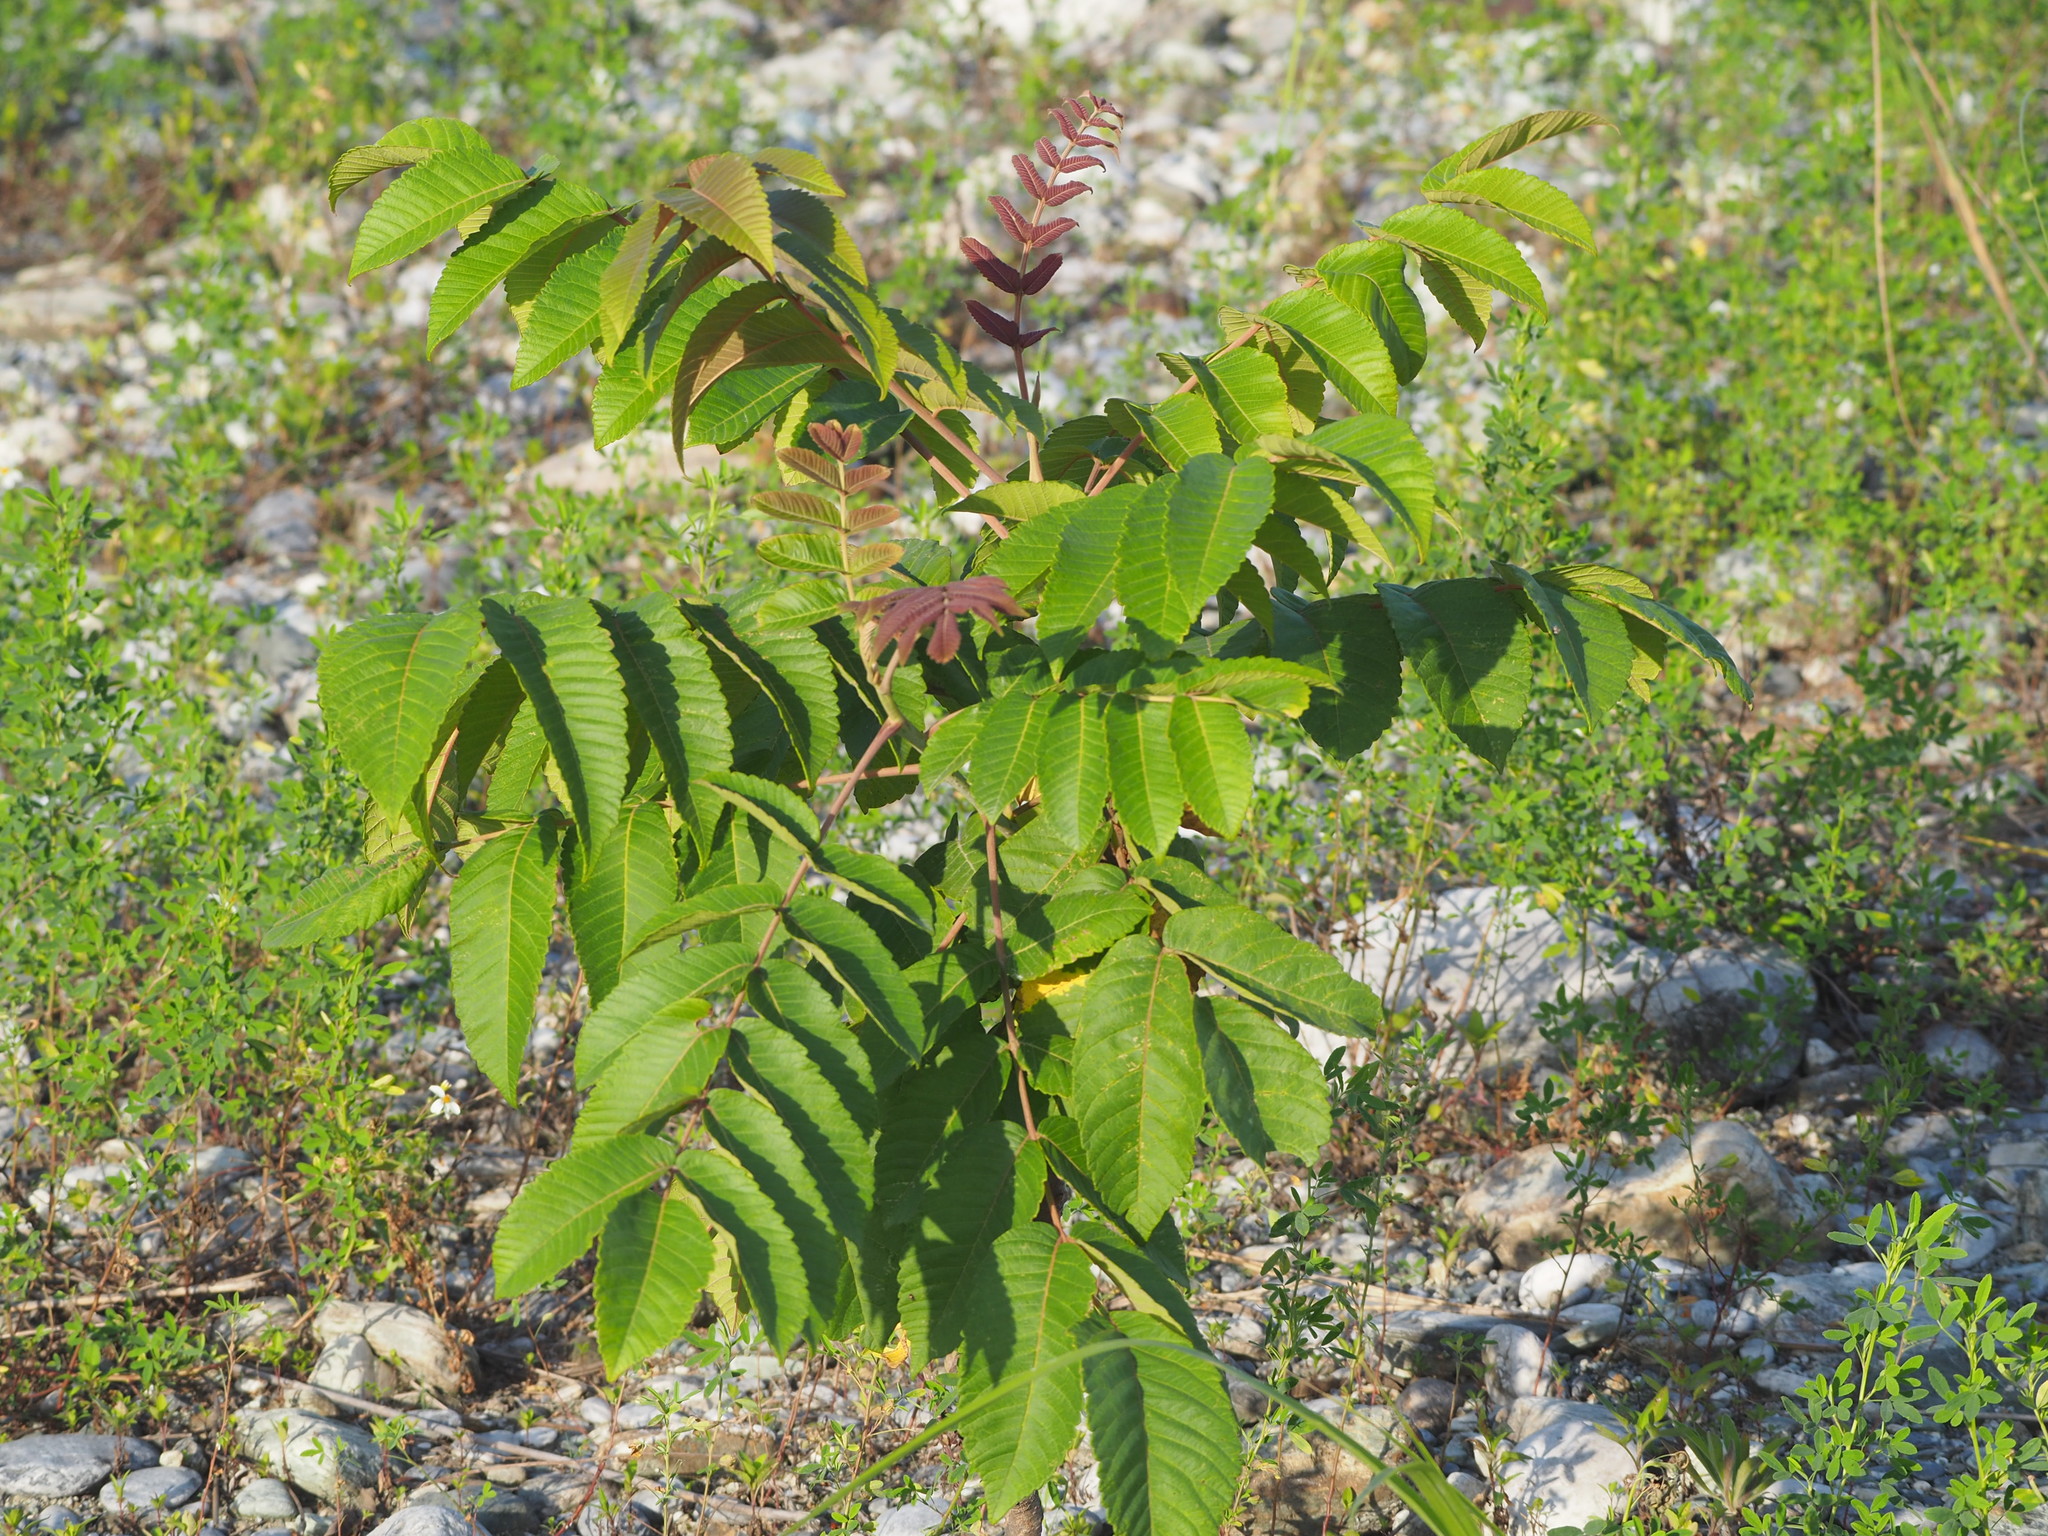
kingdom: Plantae
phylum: Tracheophyta
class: Magnoliopsida
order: Sapindales
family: Anacardiaceae
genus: Rhus
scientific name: Rhus chinensis
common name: Chinese gall
